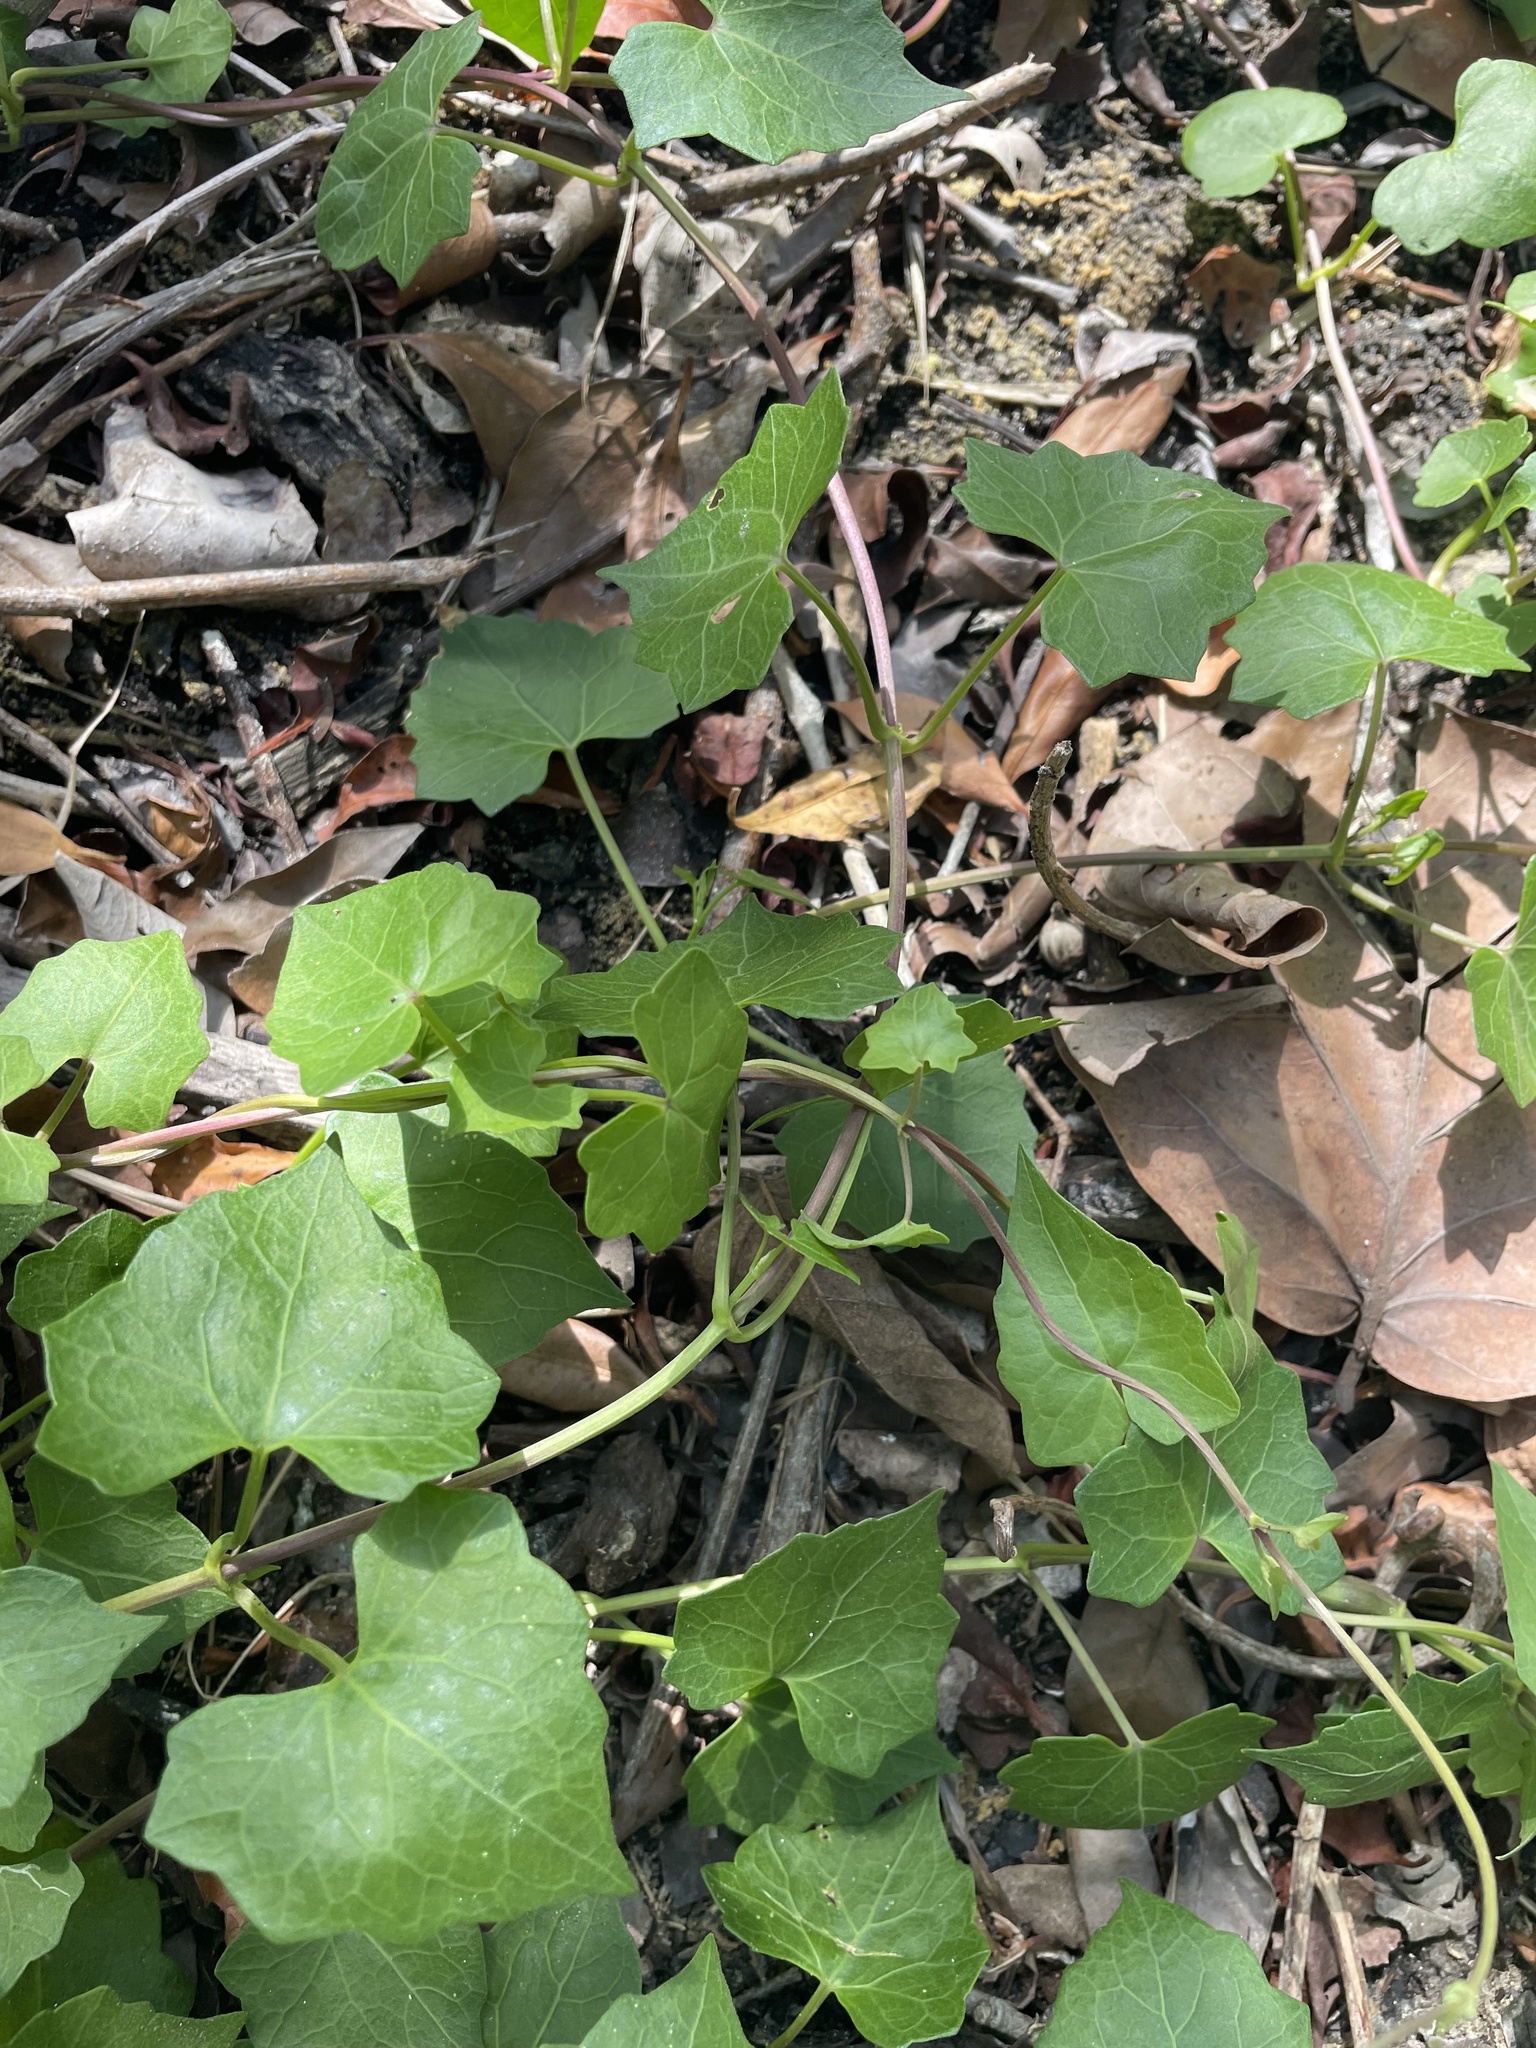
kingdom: Plantae
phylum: Tracheophyta
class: Magnoliopsida
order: Asterales
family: Asteraceae
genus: Mikania
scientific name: Mikania scandens
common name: Climbing hempvine
